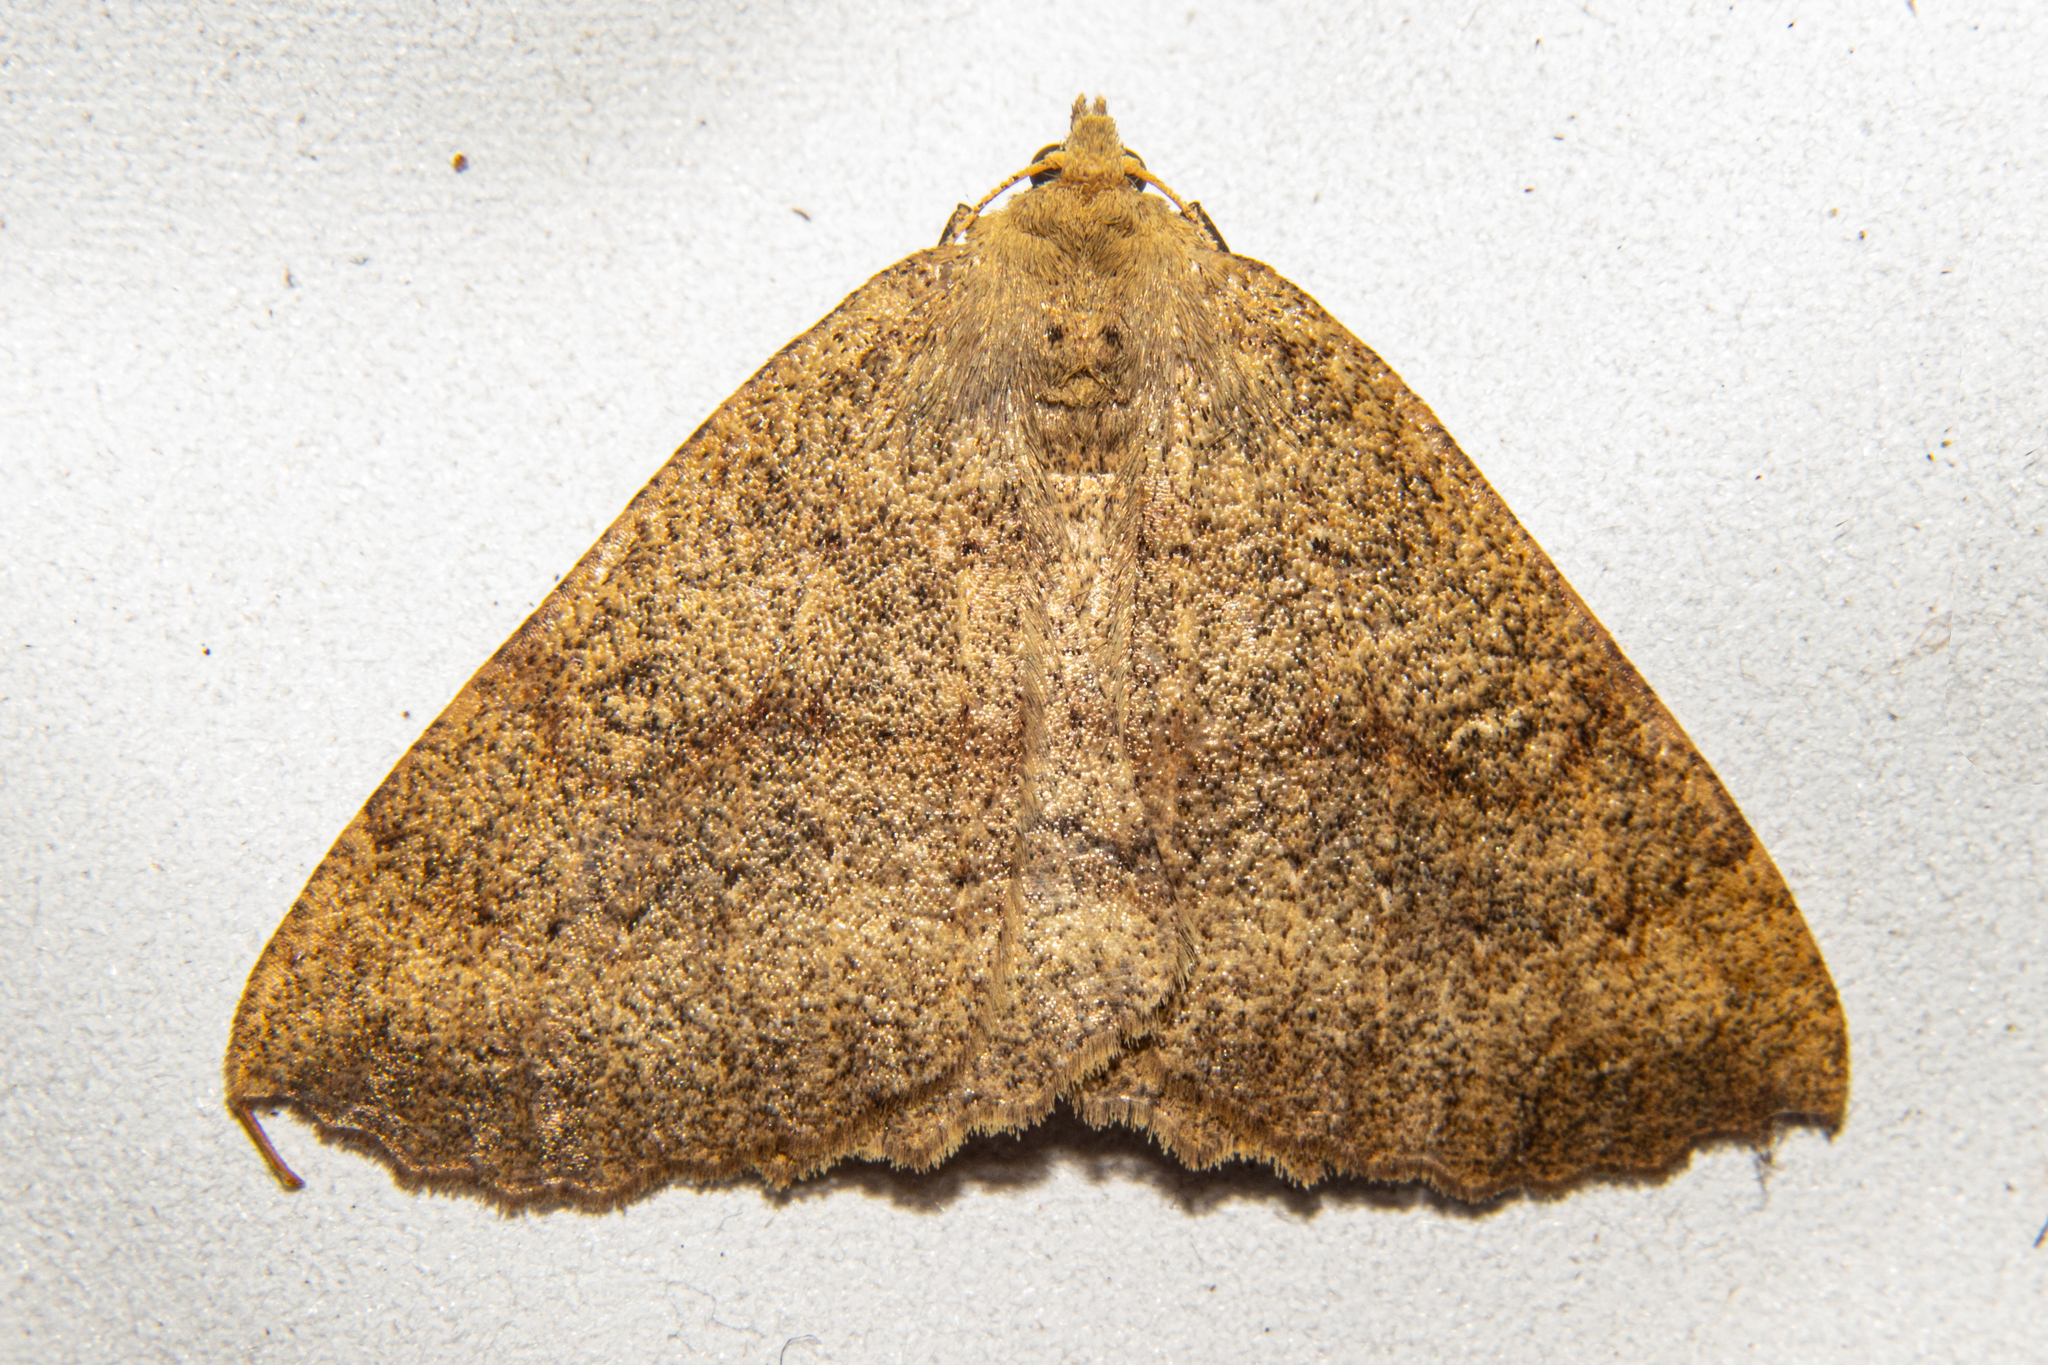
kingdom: Animalia
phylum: Arthropoda
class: Insecta
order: Lepidoptera
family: Geometridae
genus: Cleora
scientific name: Cleora scriptaria
